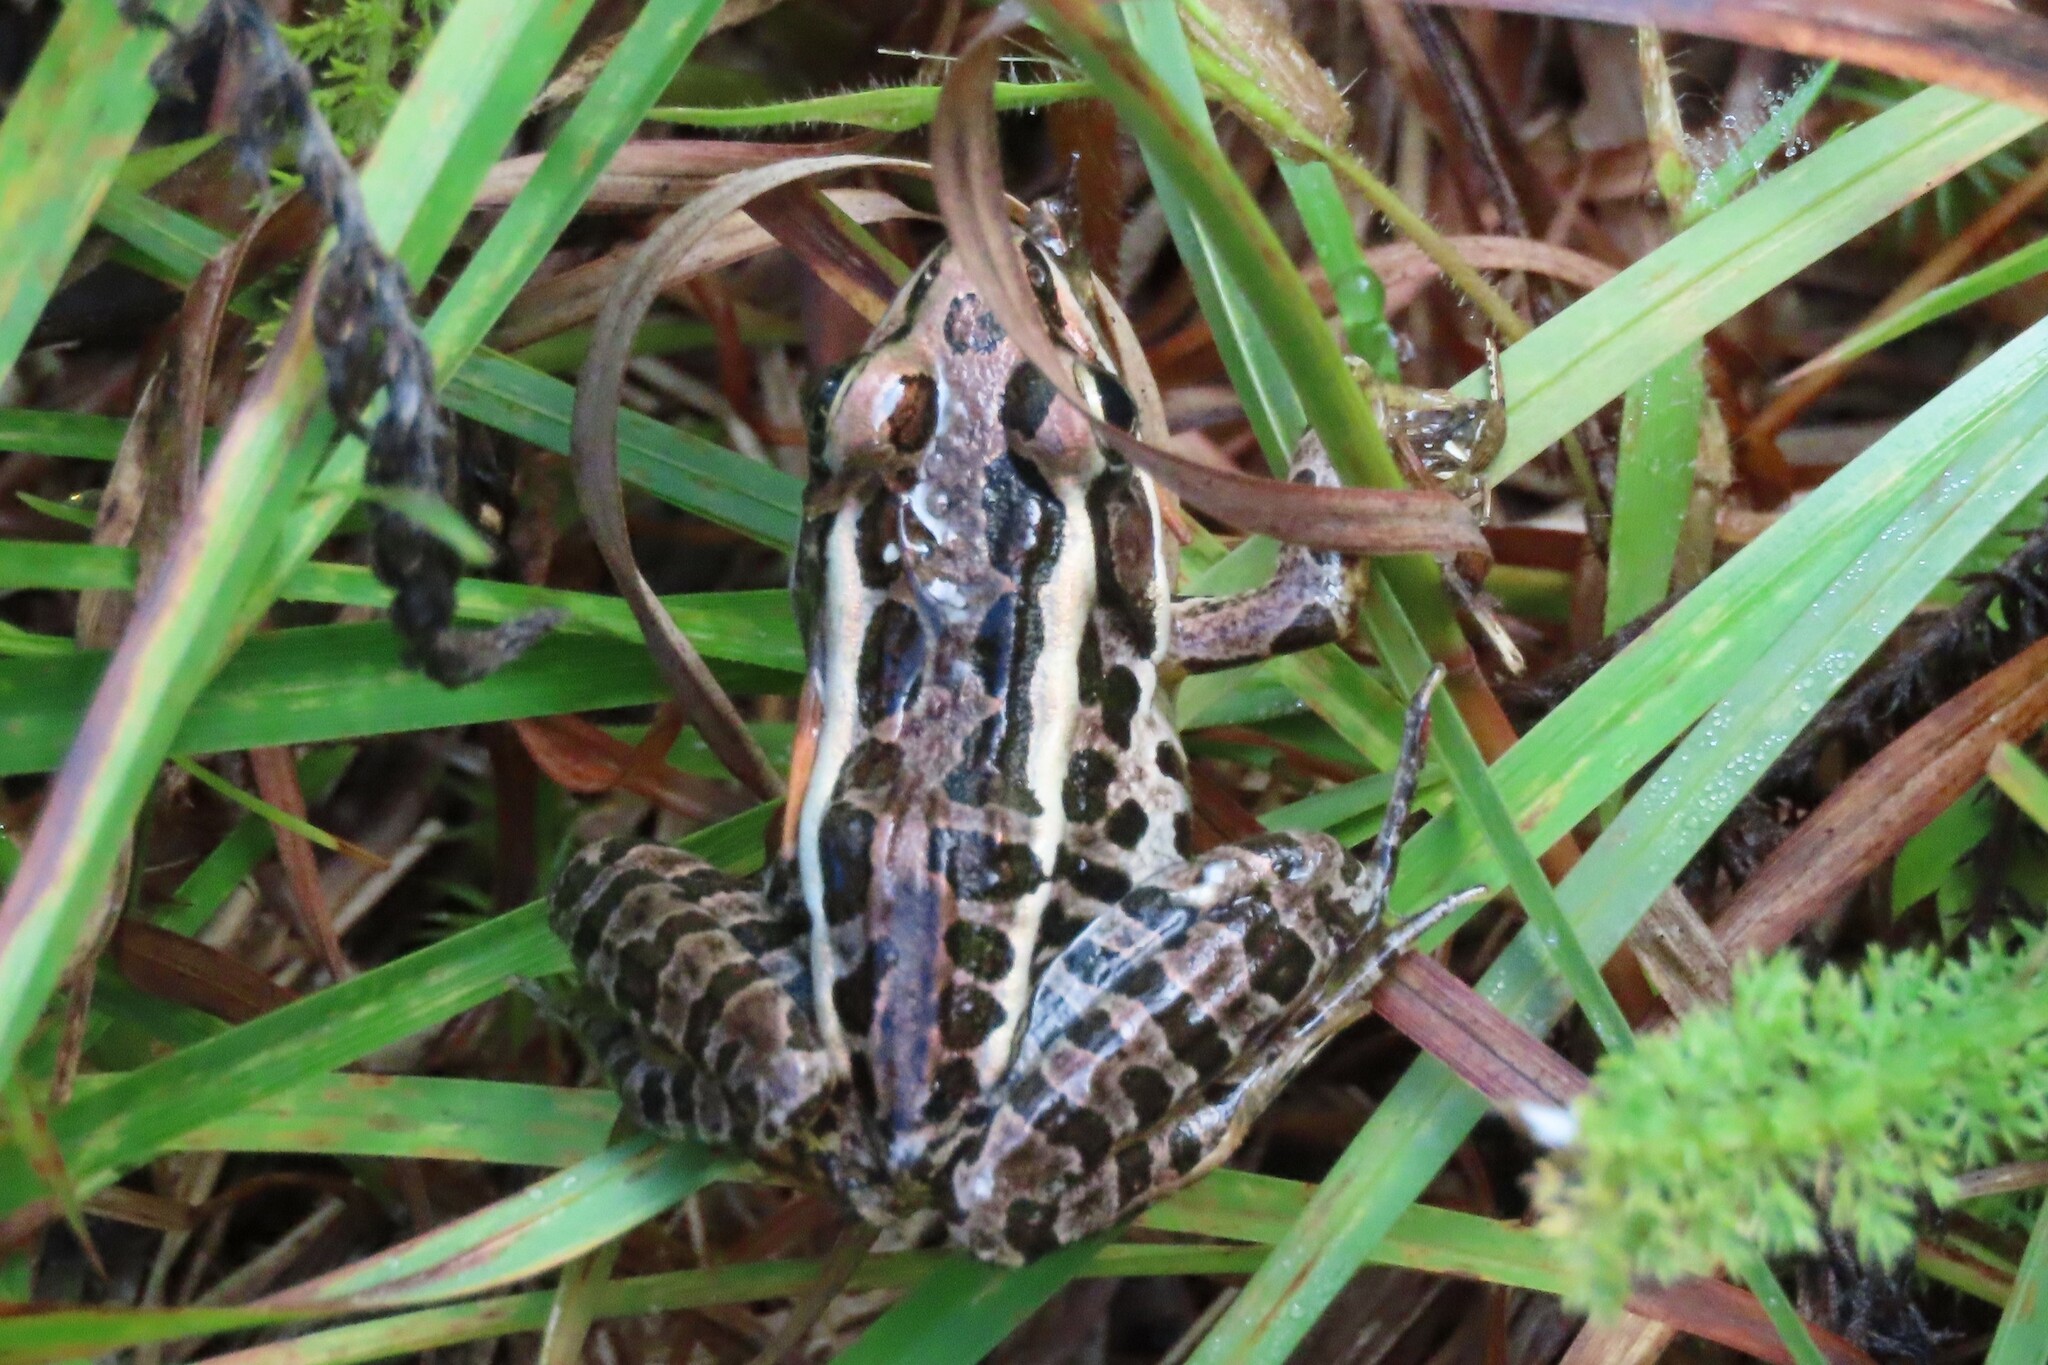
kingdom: Animalia
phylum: Chordata
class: Amphibia
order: Anura
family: Ranidae
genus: Lithobates
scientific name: Lithobates palustris
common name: Pickerel frog
